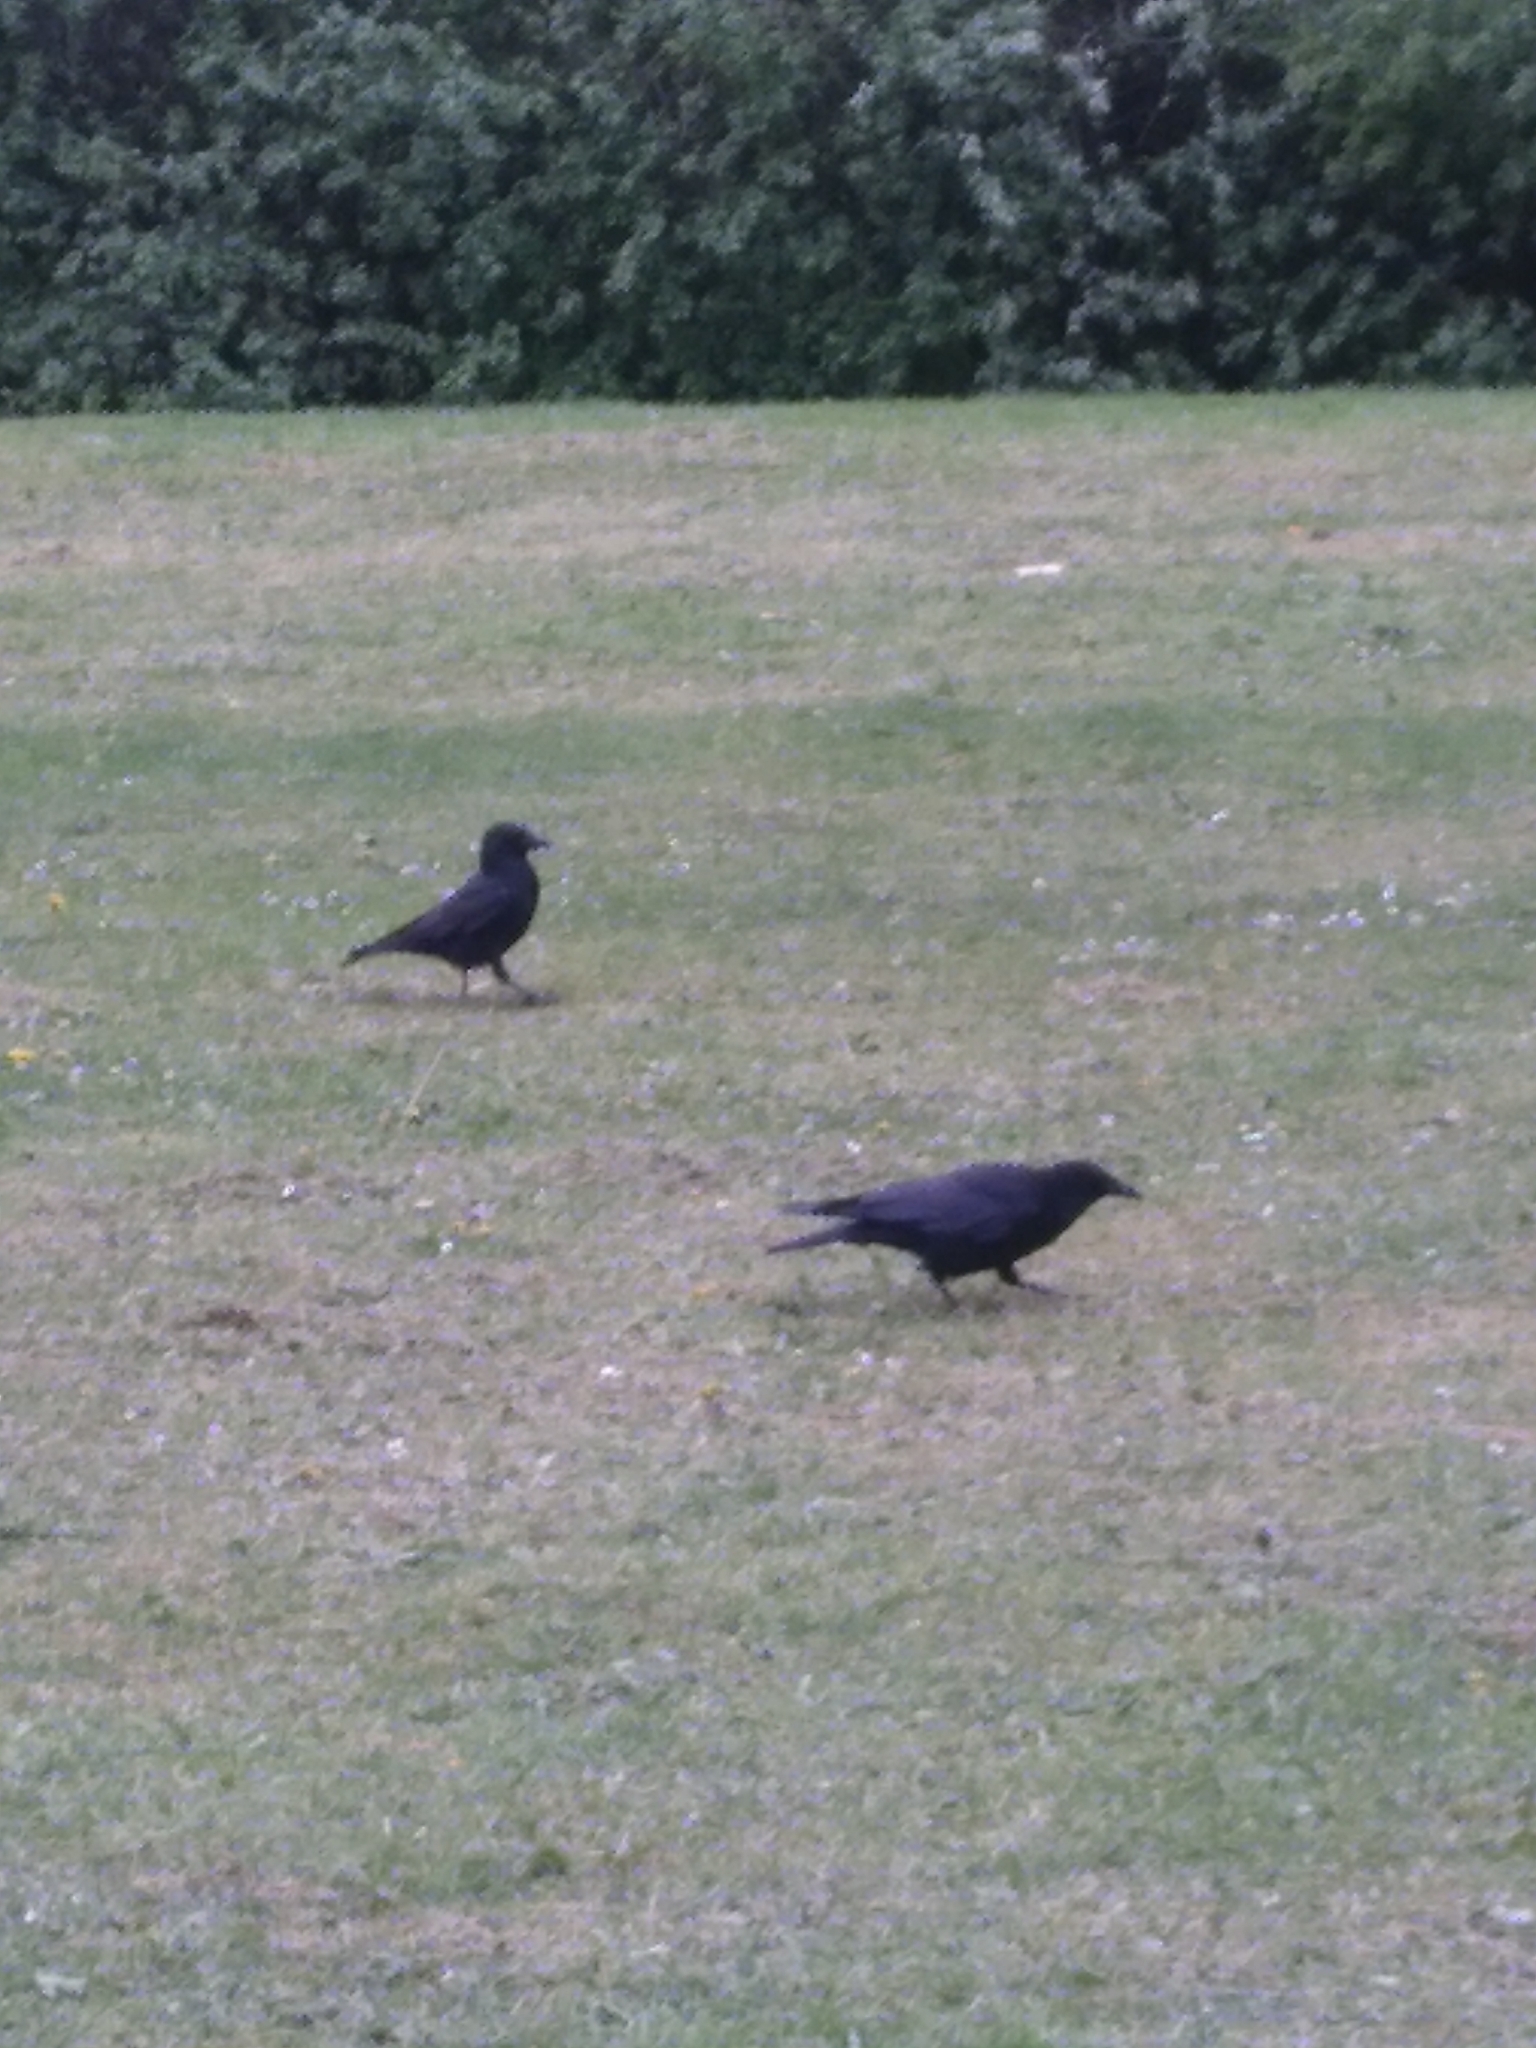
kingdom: Animalia
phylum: Chordata
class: Aves
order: Passeriformes
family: Corvidae
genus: Corvus
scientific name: Corvus corone
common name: Carrion crow
